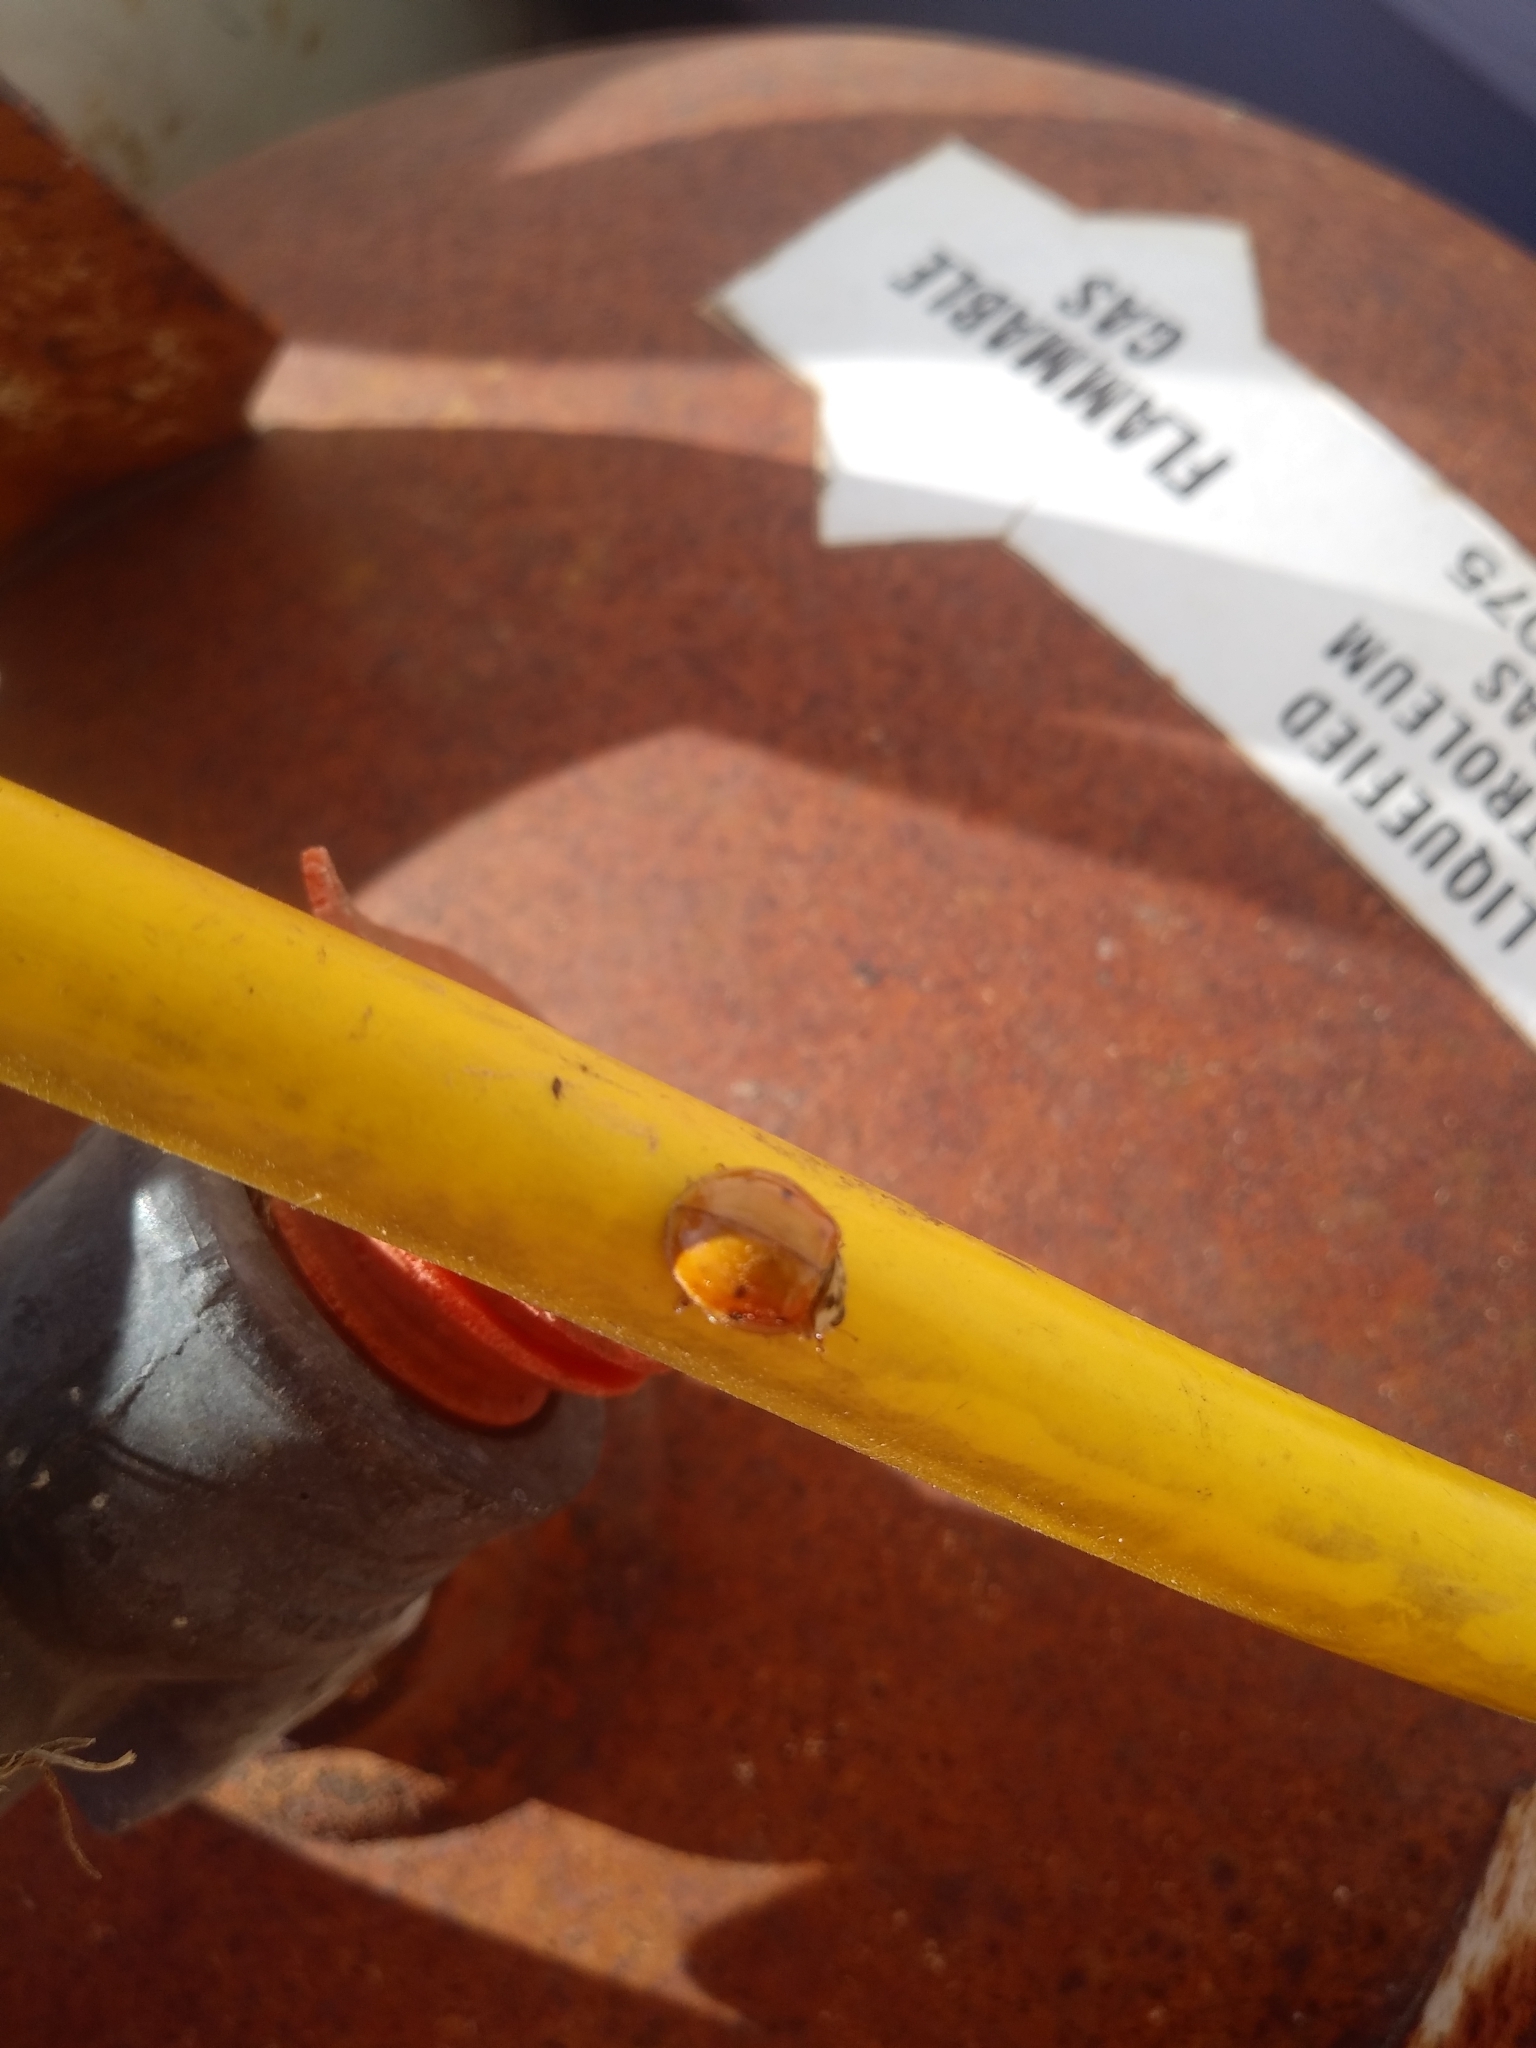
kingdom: Animalia
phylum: Arthropoda
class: Insecta
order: Coleoptera
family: Coccinellidae
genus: Harmonia
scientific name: Harmonia axyridis
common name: Harlequin ladybird
